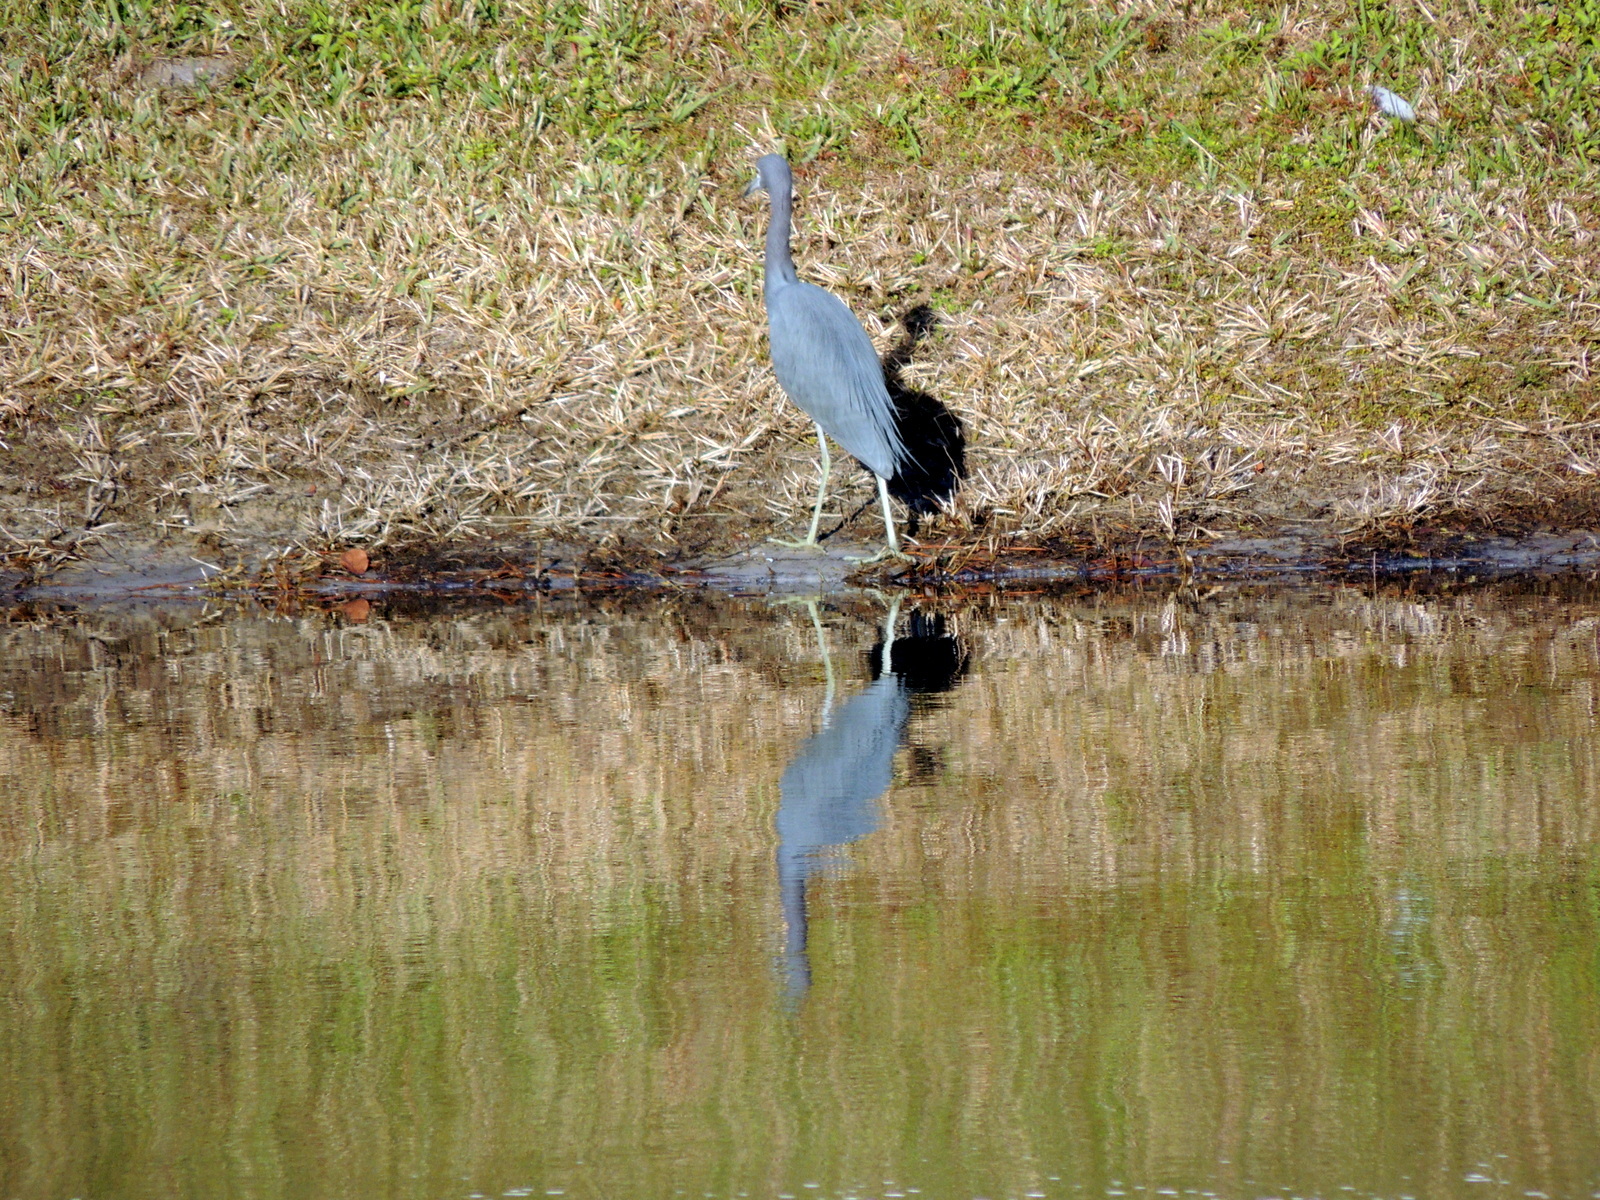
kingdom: Animalia
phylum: Chordata
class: Aves
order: Pelecaniformes
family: Ardeidae
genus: Egretta
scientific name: Egretta caerulea
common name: Little blue heron
